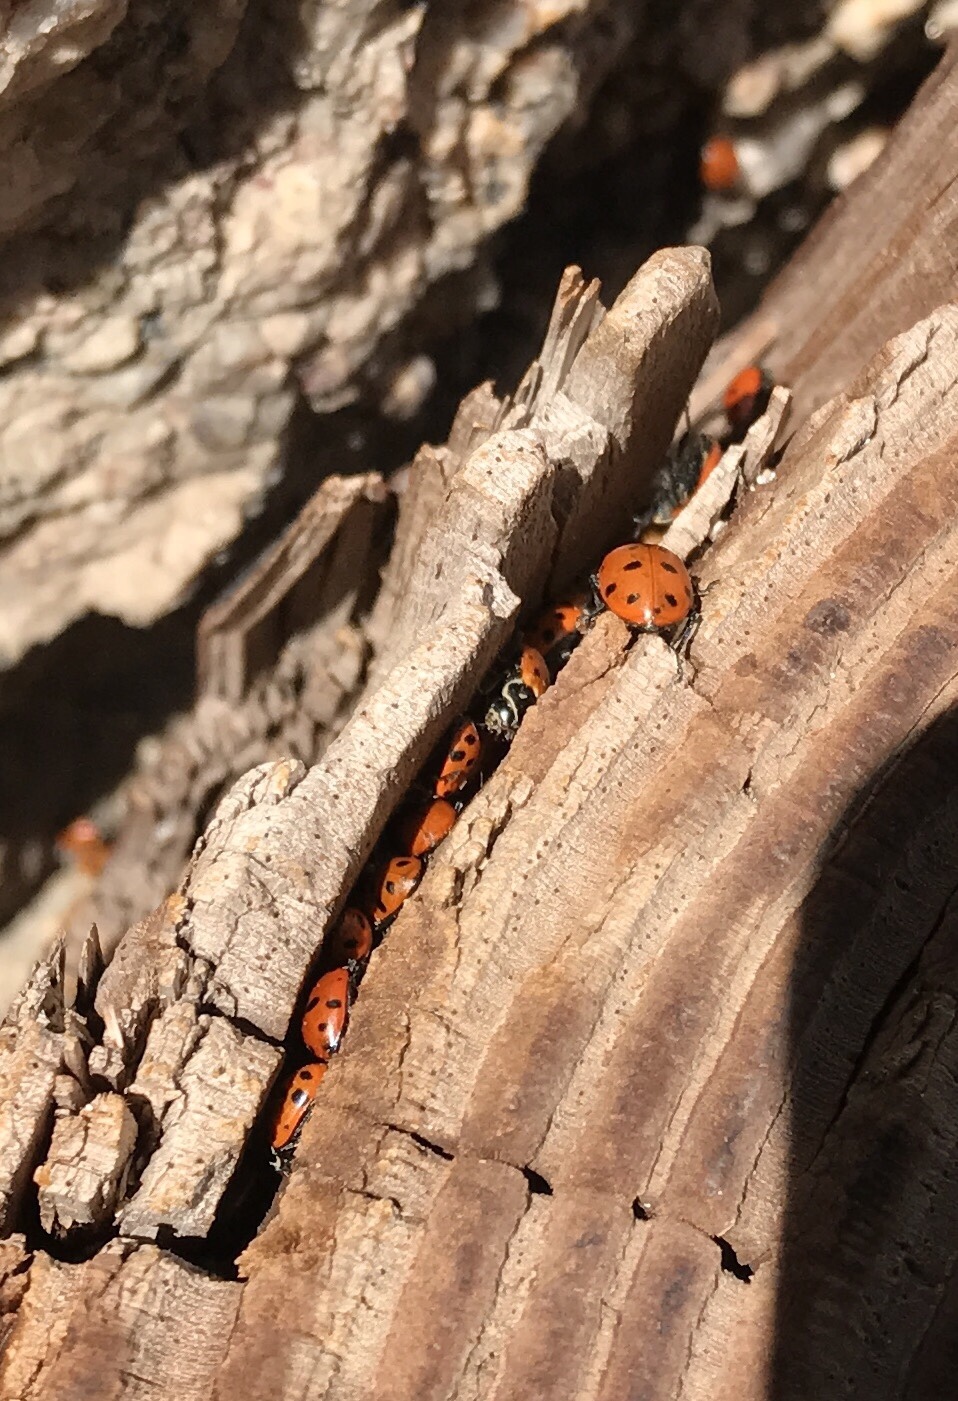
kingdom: Animalia
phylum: Arthropoda
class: Insecta
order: Coleoptera
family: Coccinellidae
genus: Hippodamia
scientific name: Hippodamia convergens
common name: Convergent lady beetle
